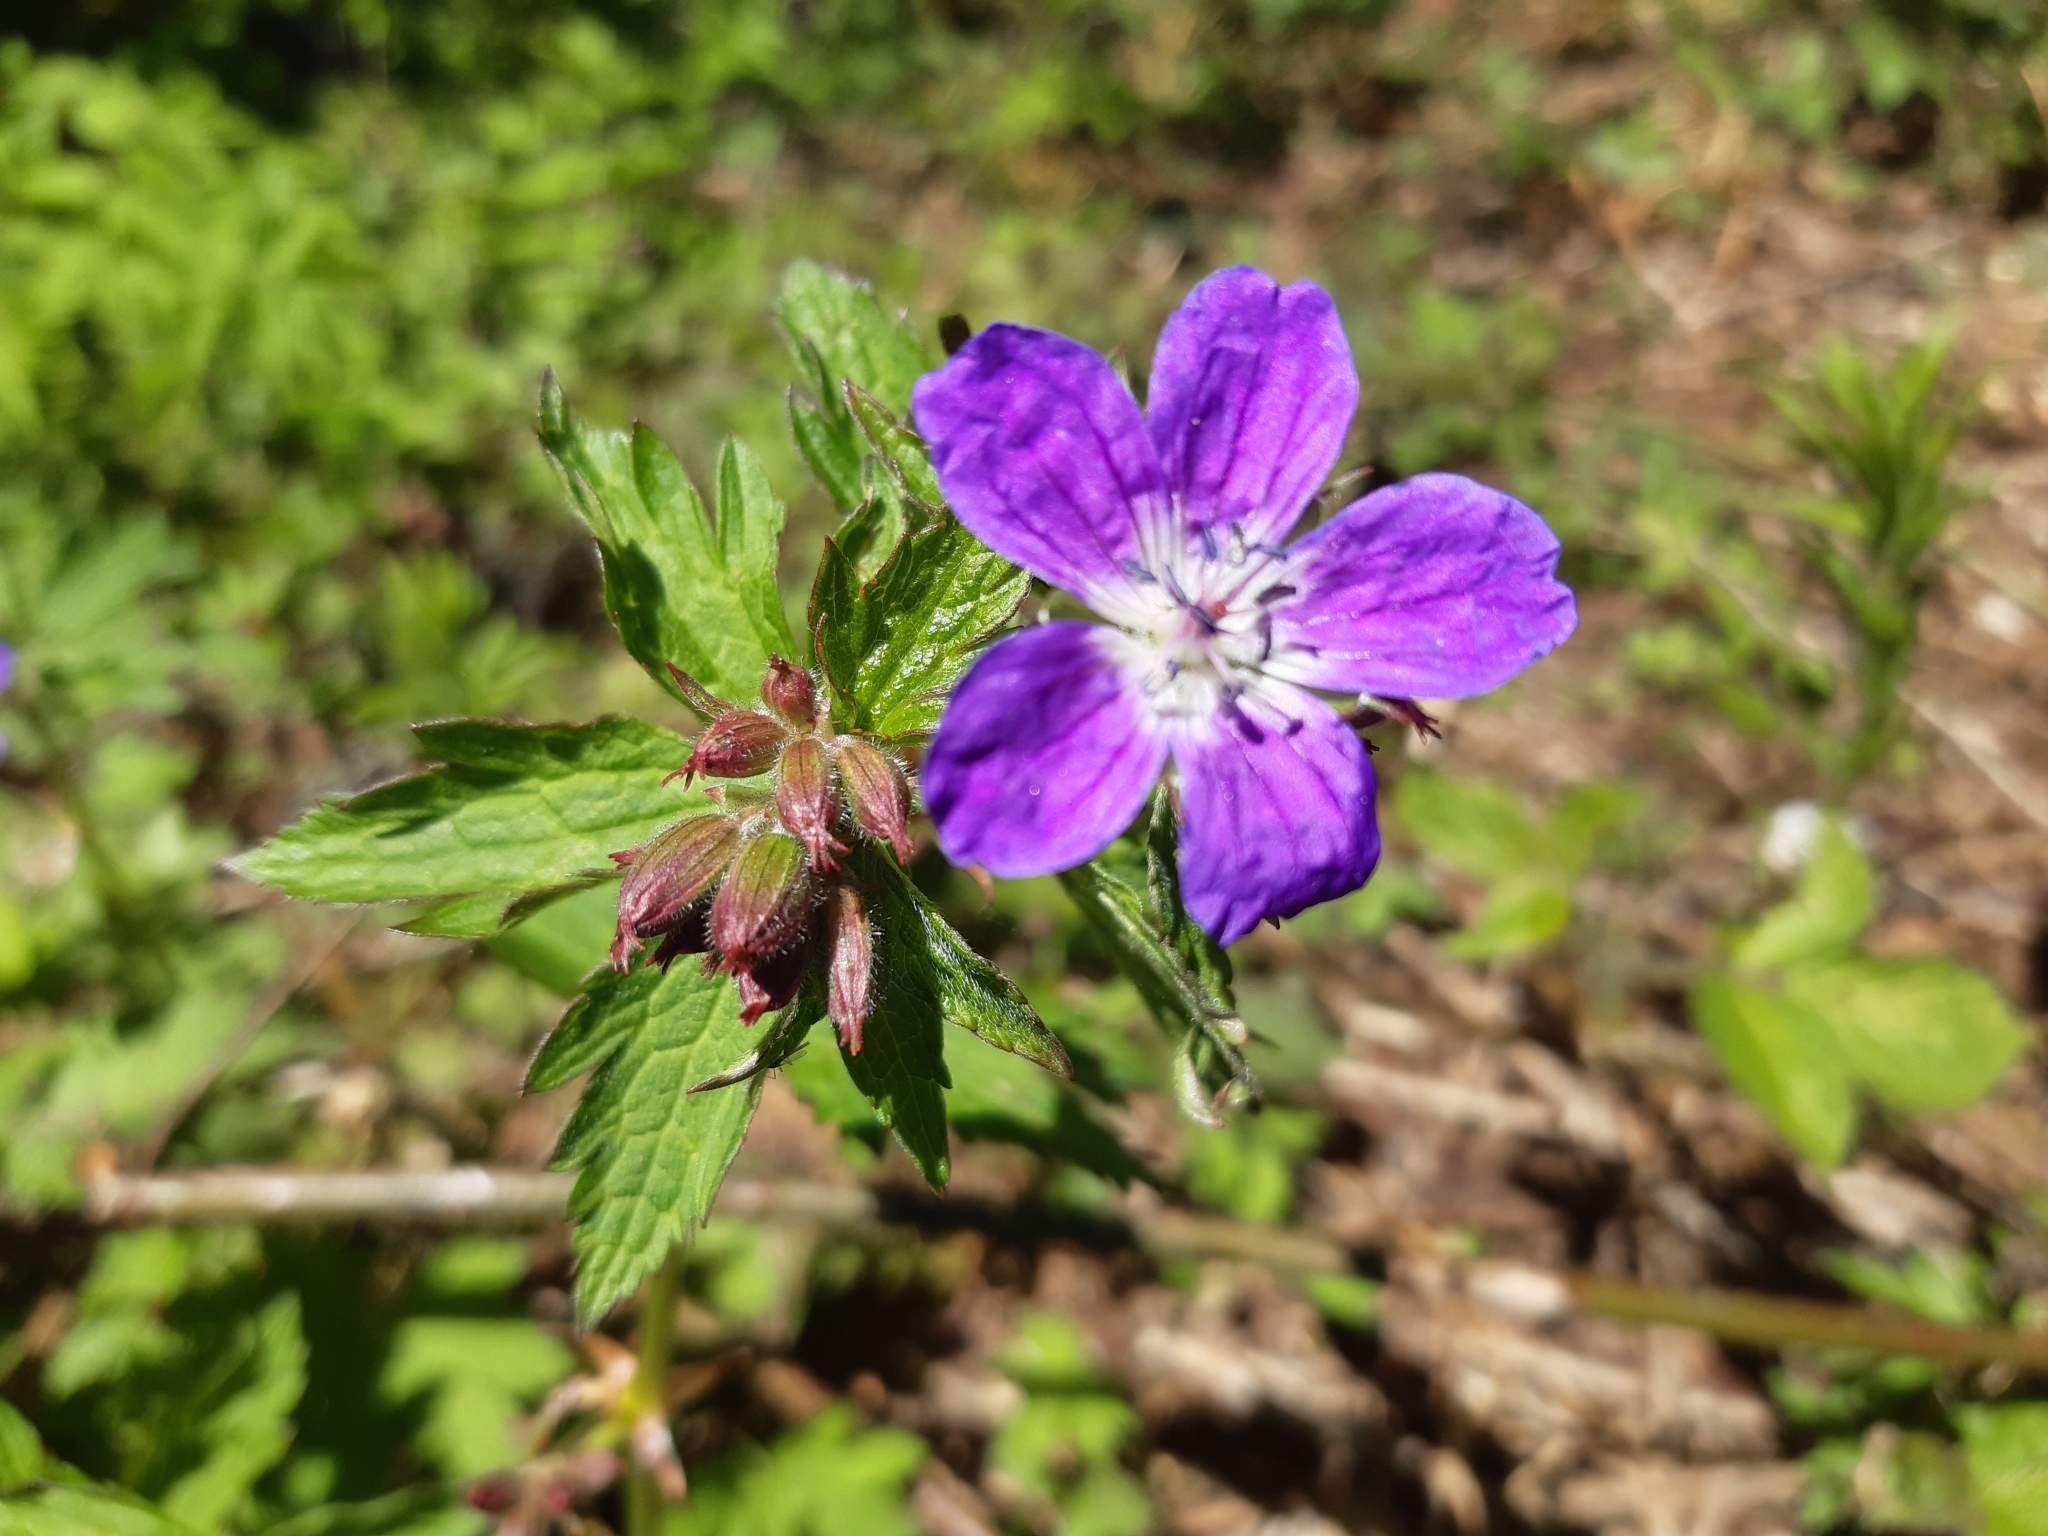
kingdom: Plantae
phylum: Tracheophyta
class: Magnoliopsida
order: Geraniales
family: Geraniaceae
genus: Geranium
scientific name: Geranium sylvaticum
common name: Wood crane's-bill
